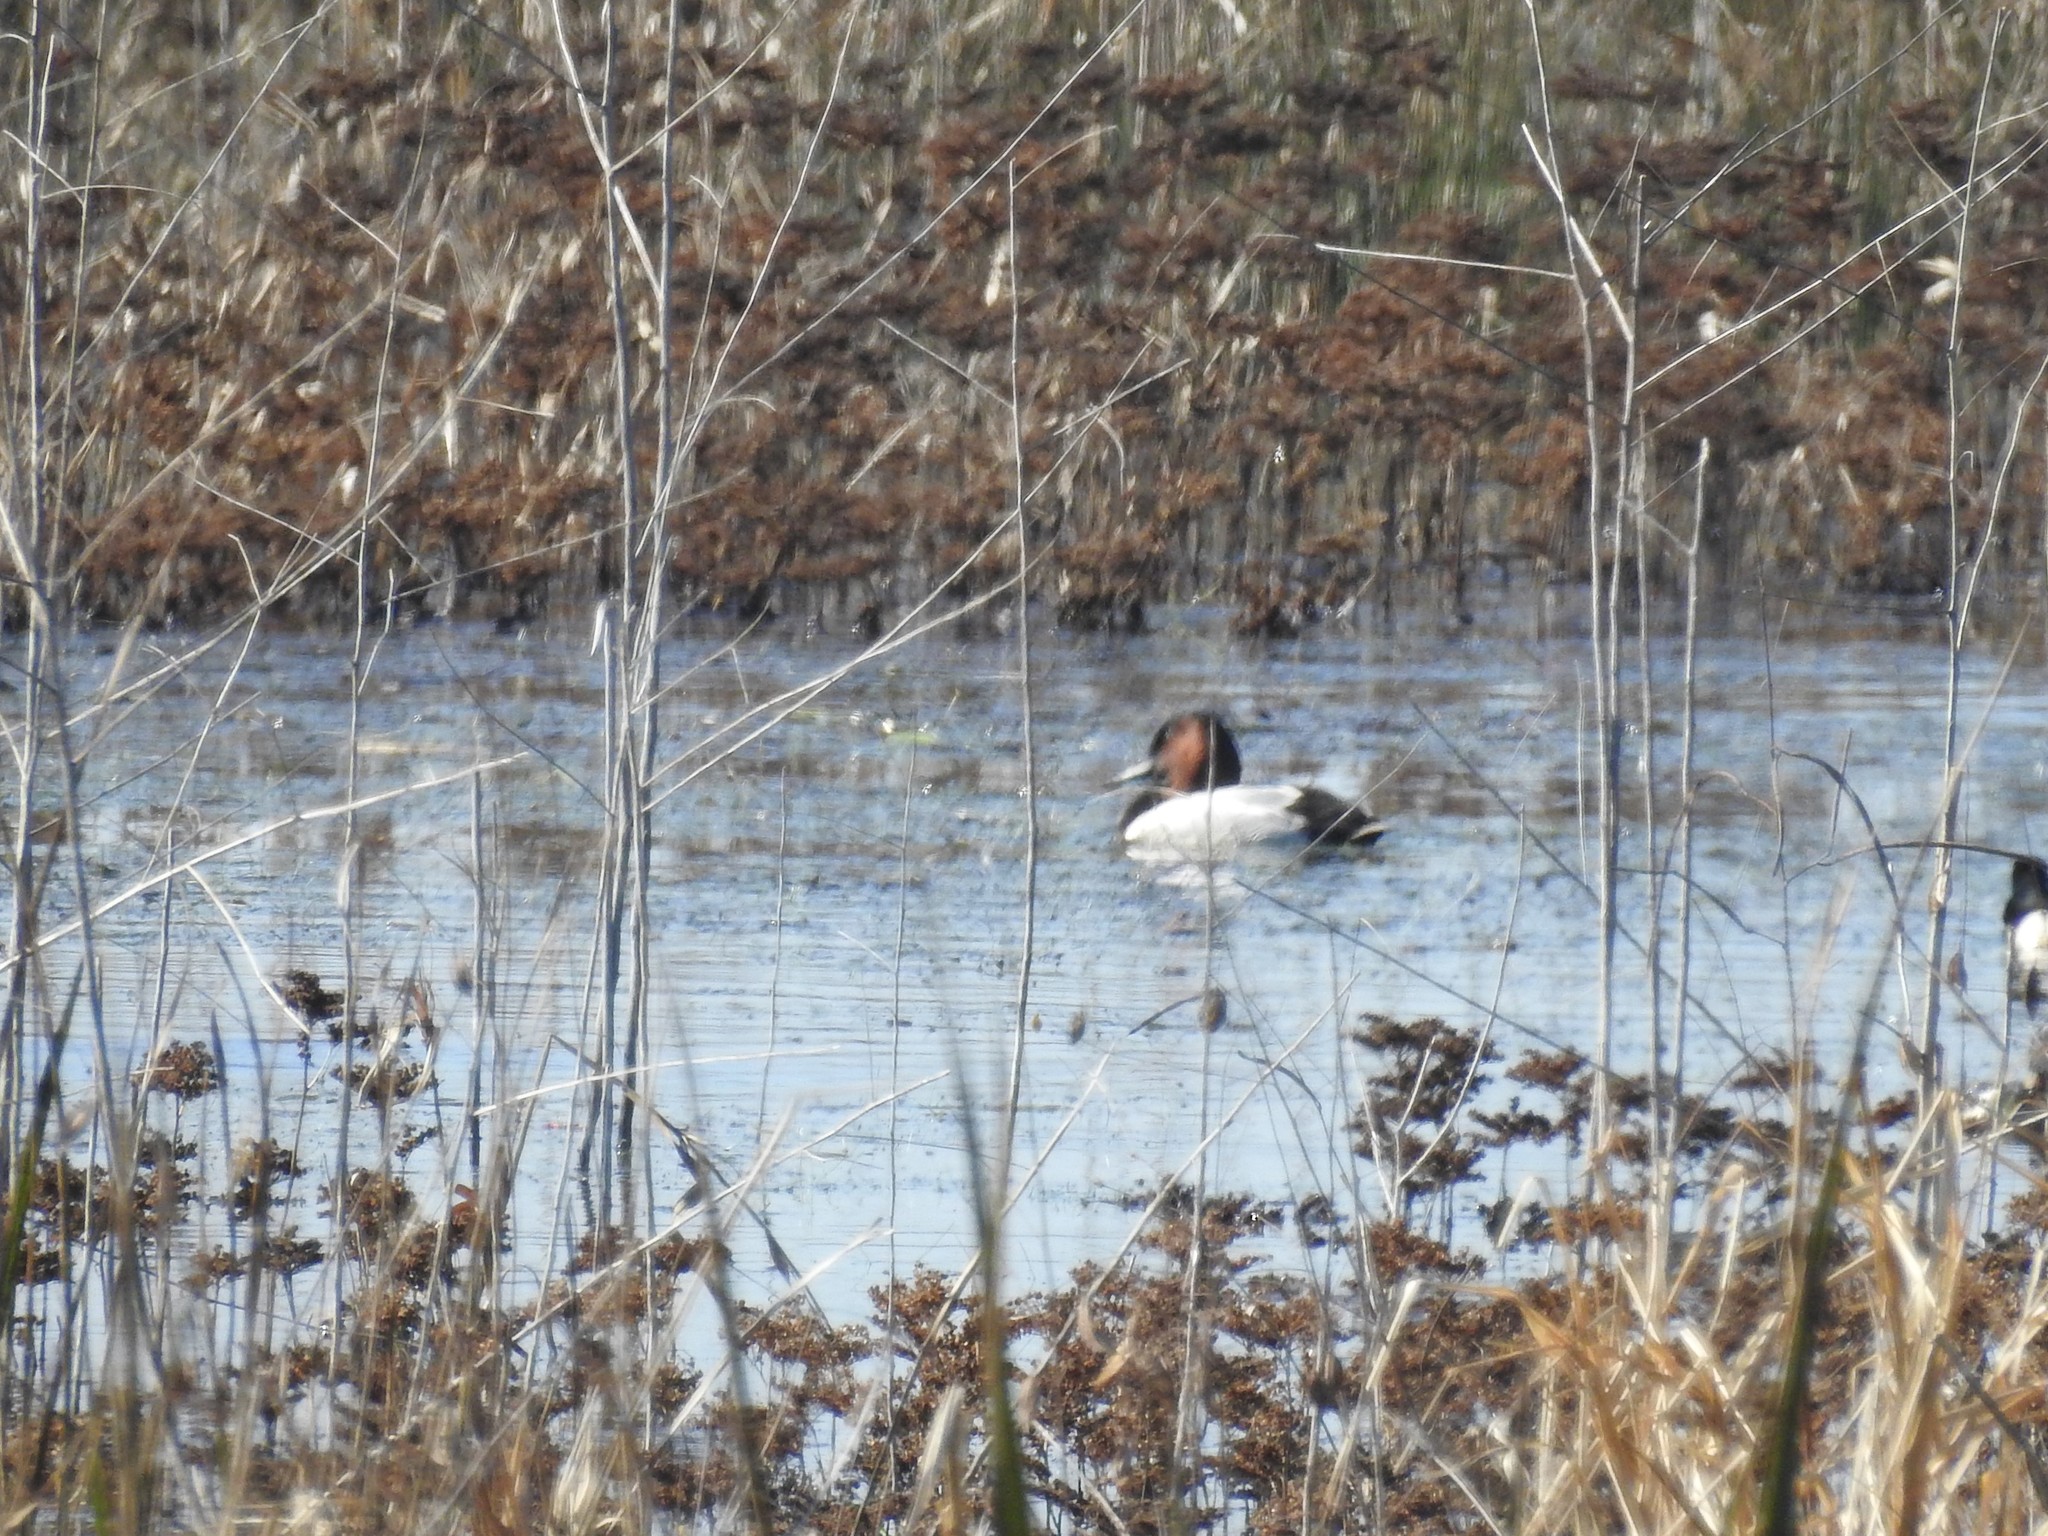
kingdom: Animalia
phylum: Chordata
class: Aves
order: Anseriformes
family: Anatidae
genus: Aythya
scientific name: Aythya valisineria
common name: Canvasback
